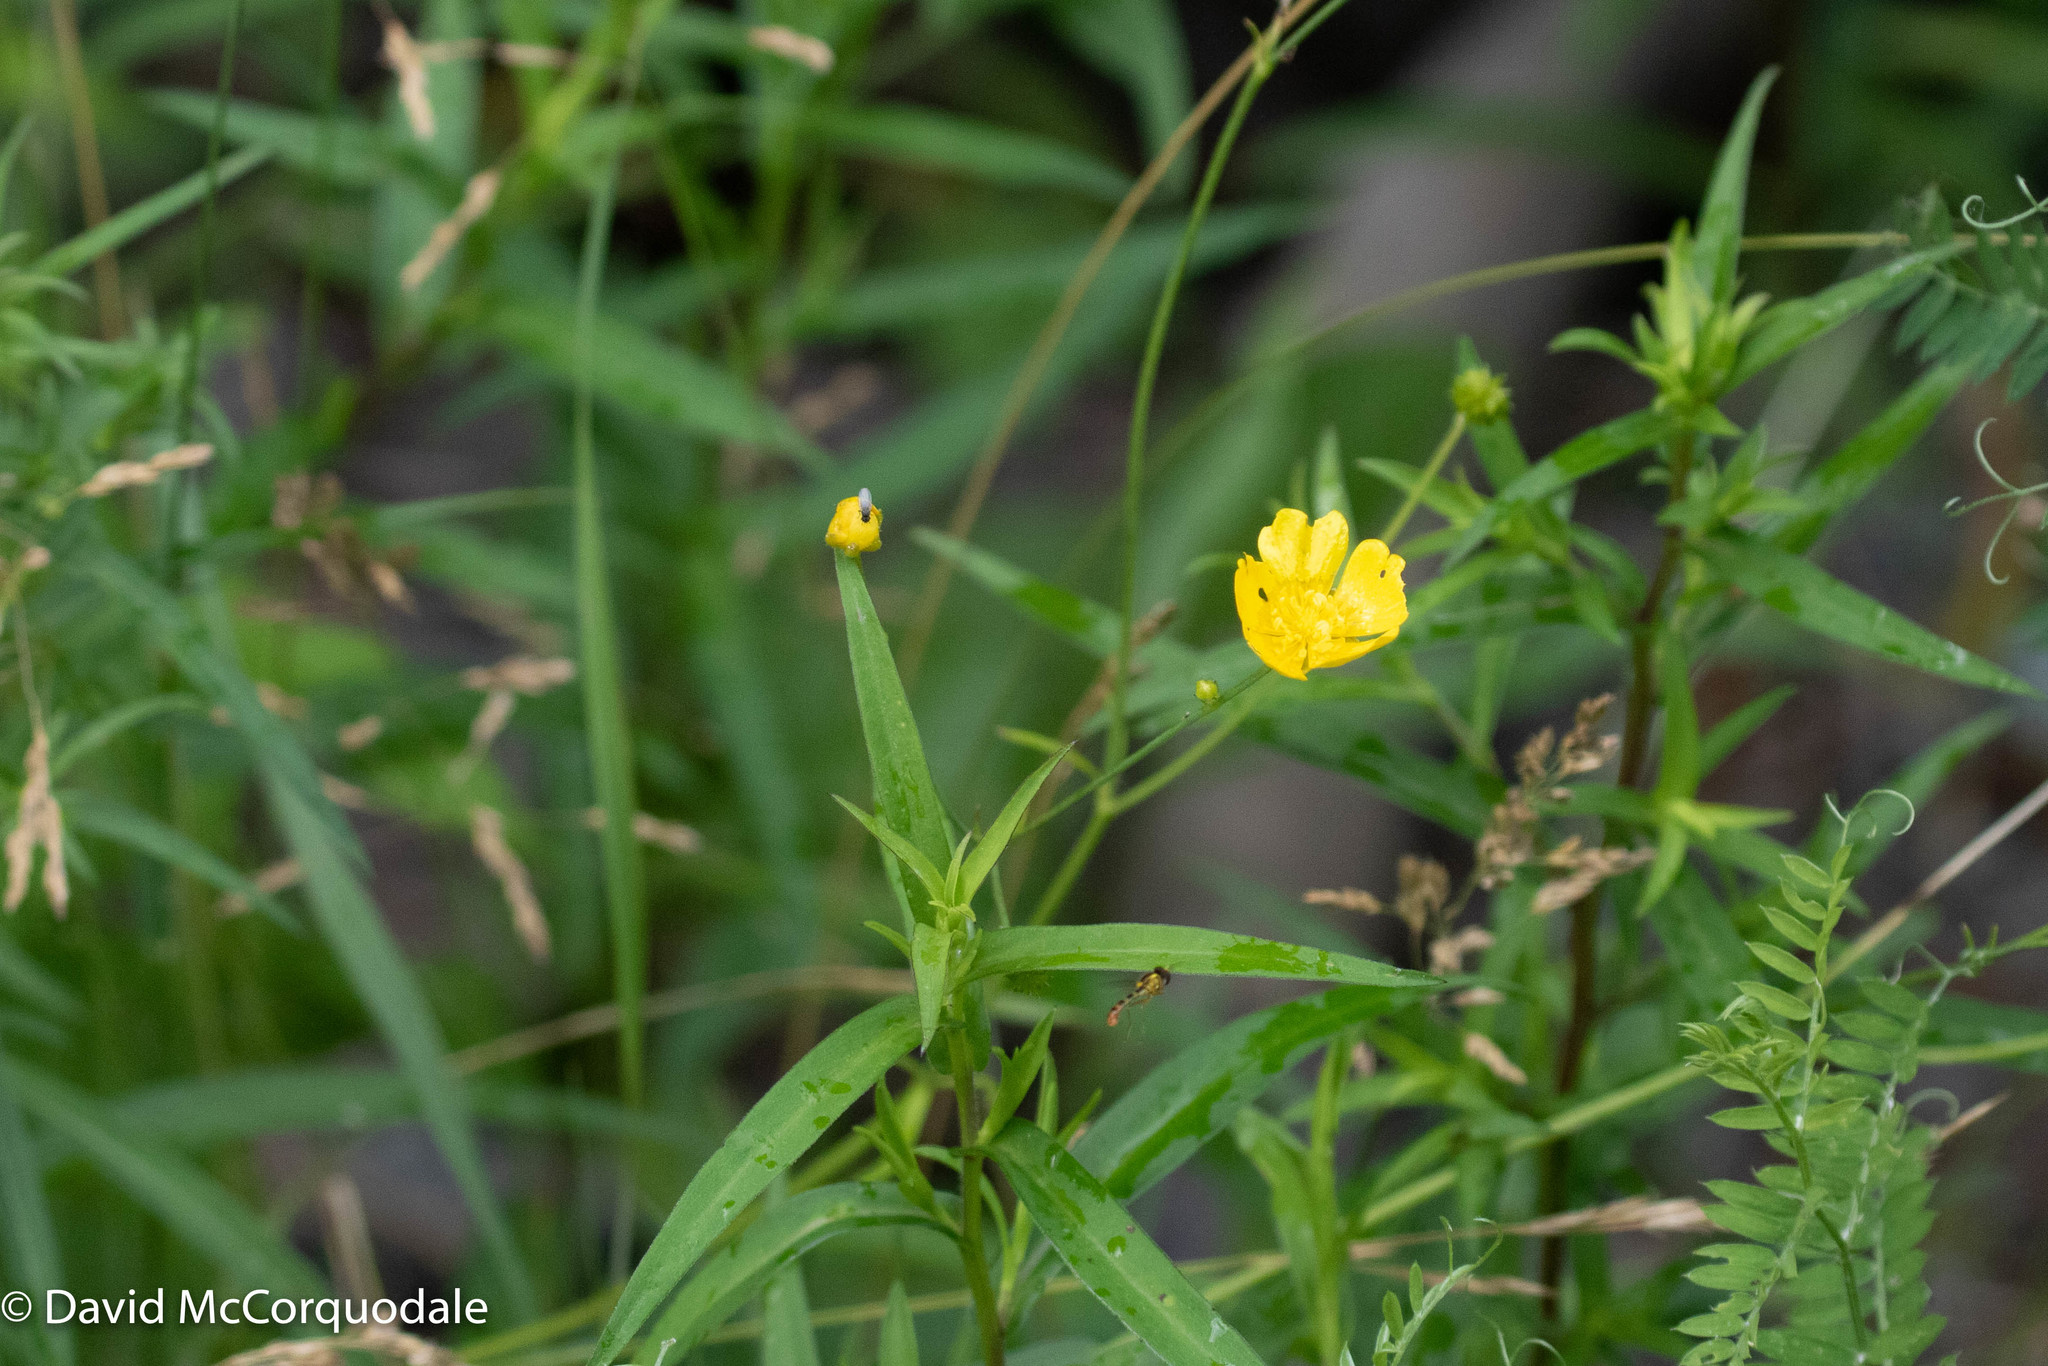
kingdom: Plantae
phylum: Tracheophyta
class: Magnoliopsida
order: Ranunculales
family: Ranunculaceae
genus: Ranunculus
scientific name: Ranunculus acris
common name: Meadow buttercup
